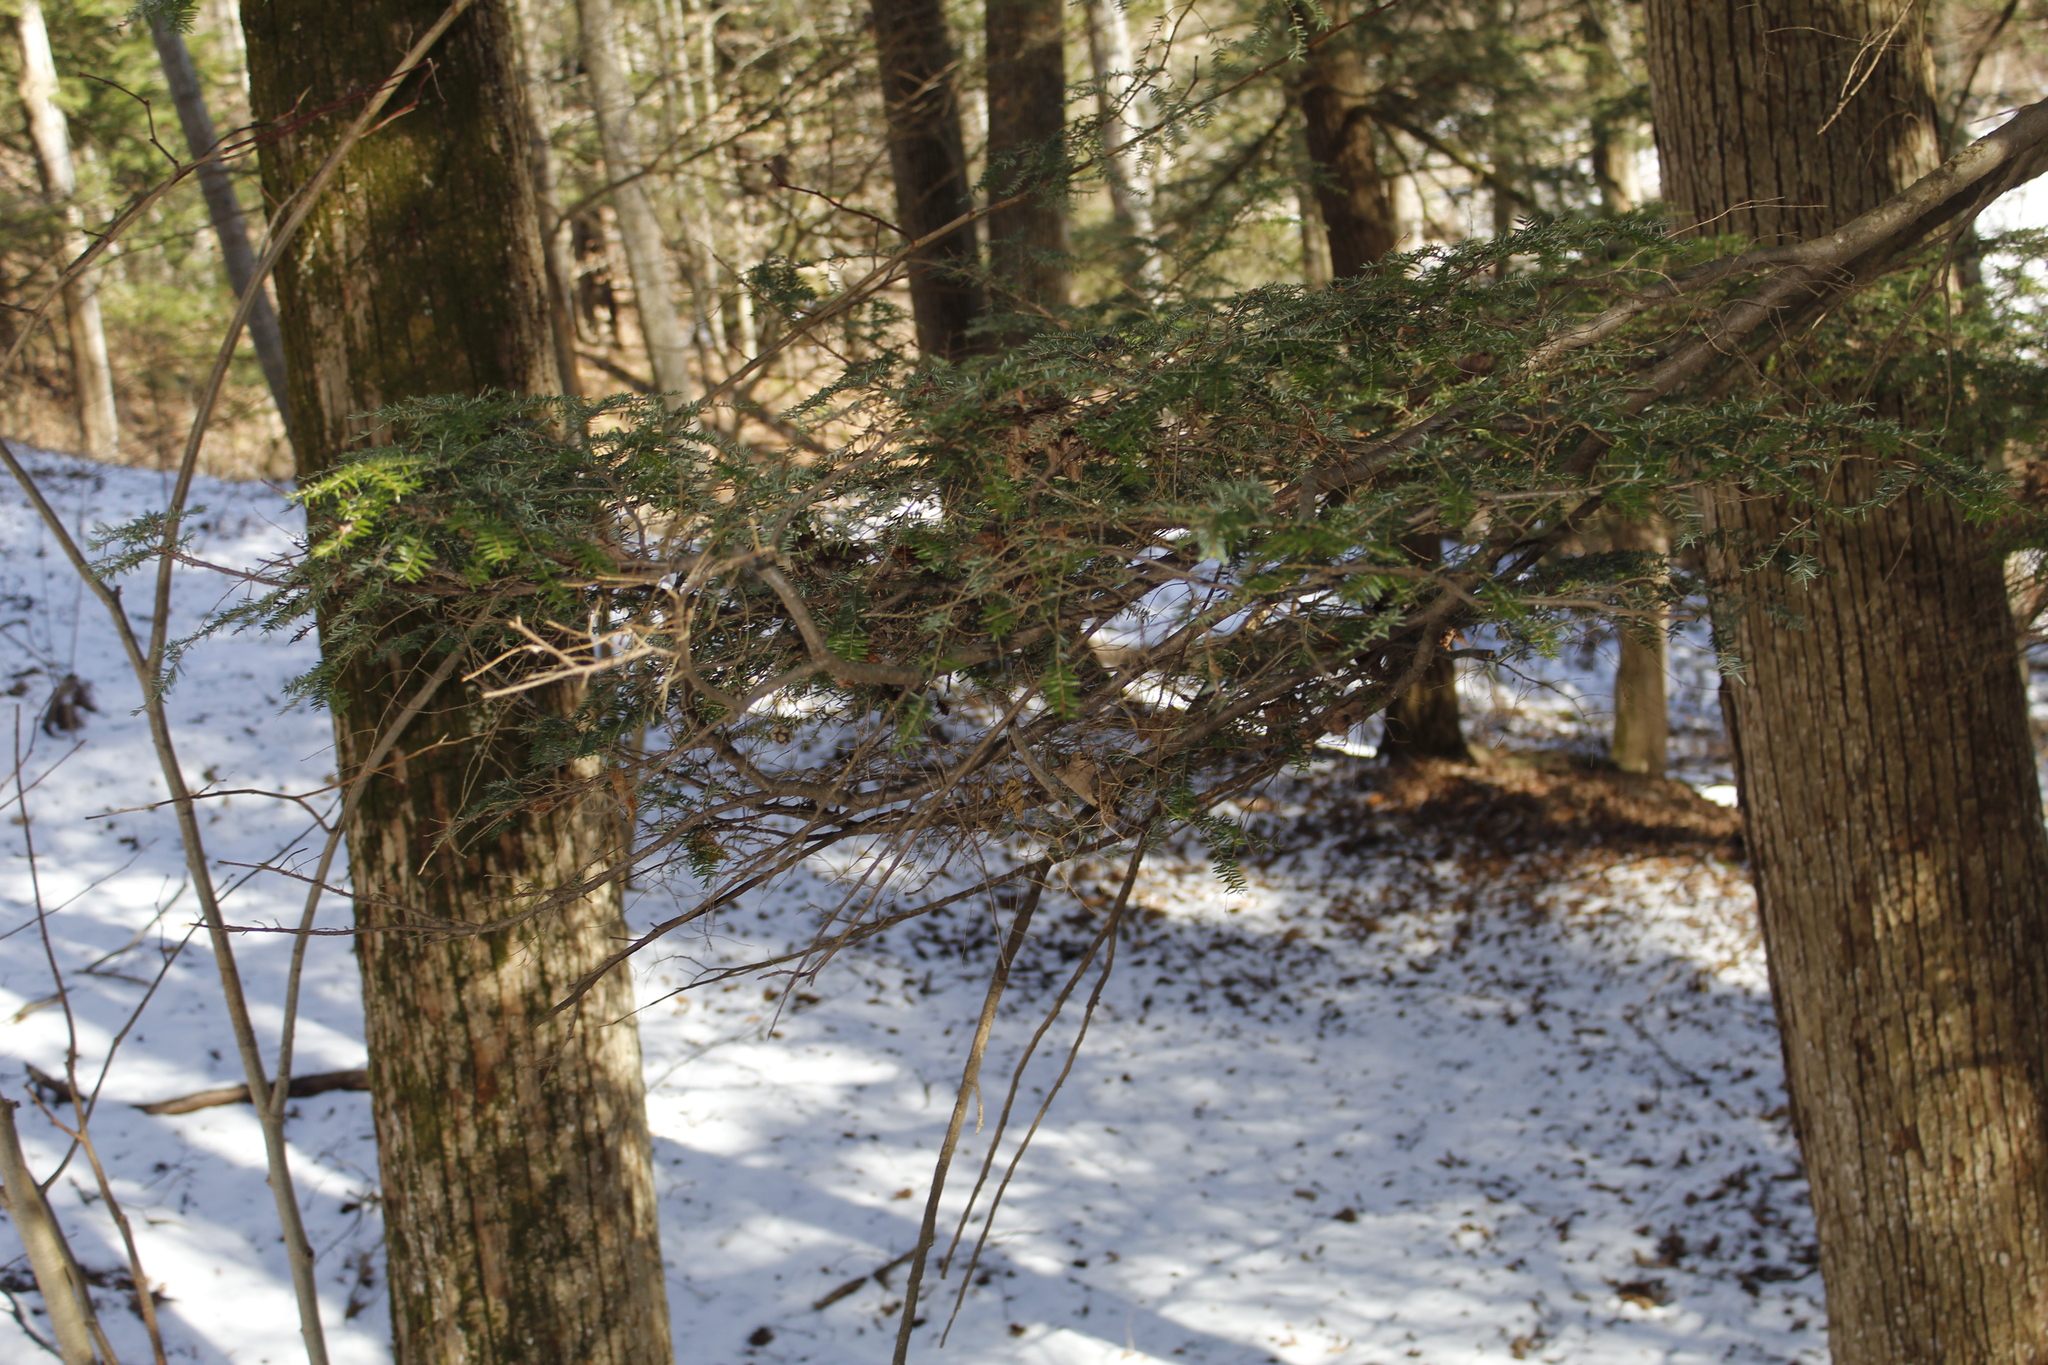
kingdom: Plantae
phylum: Tracheophyta
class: Pinopsida
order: Pinales
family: Pinaceae
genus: Tsuga
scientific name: Tsuga canadensis
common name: Eastern hemlock
